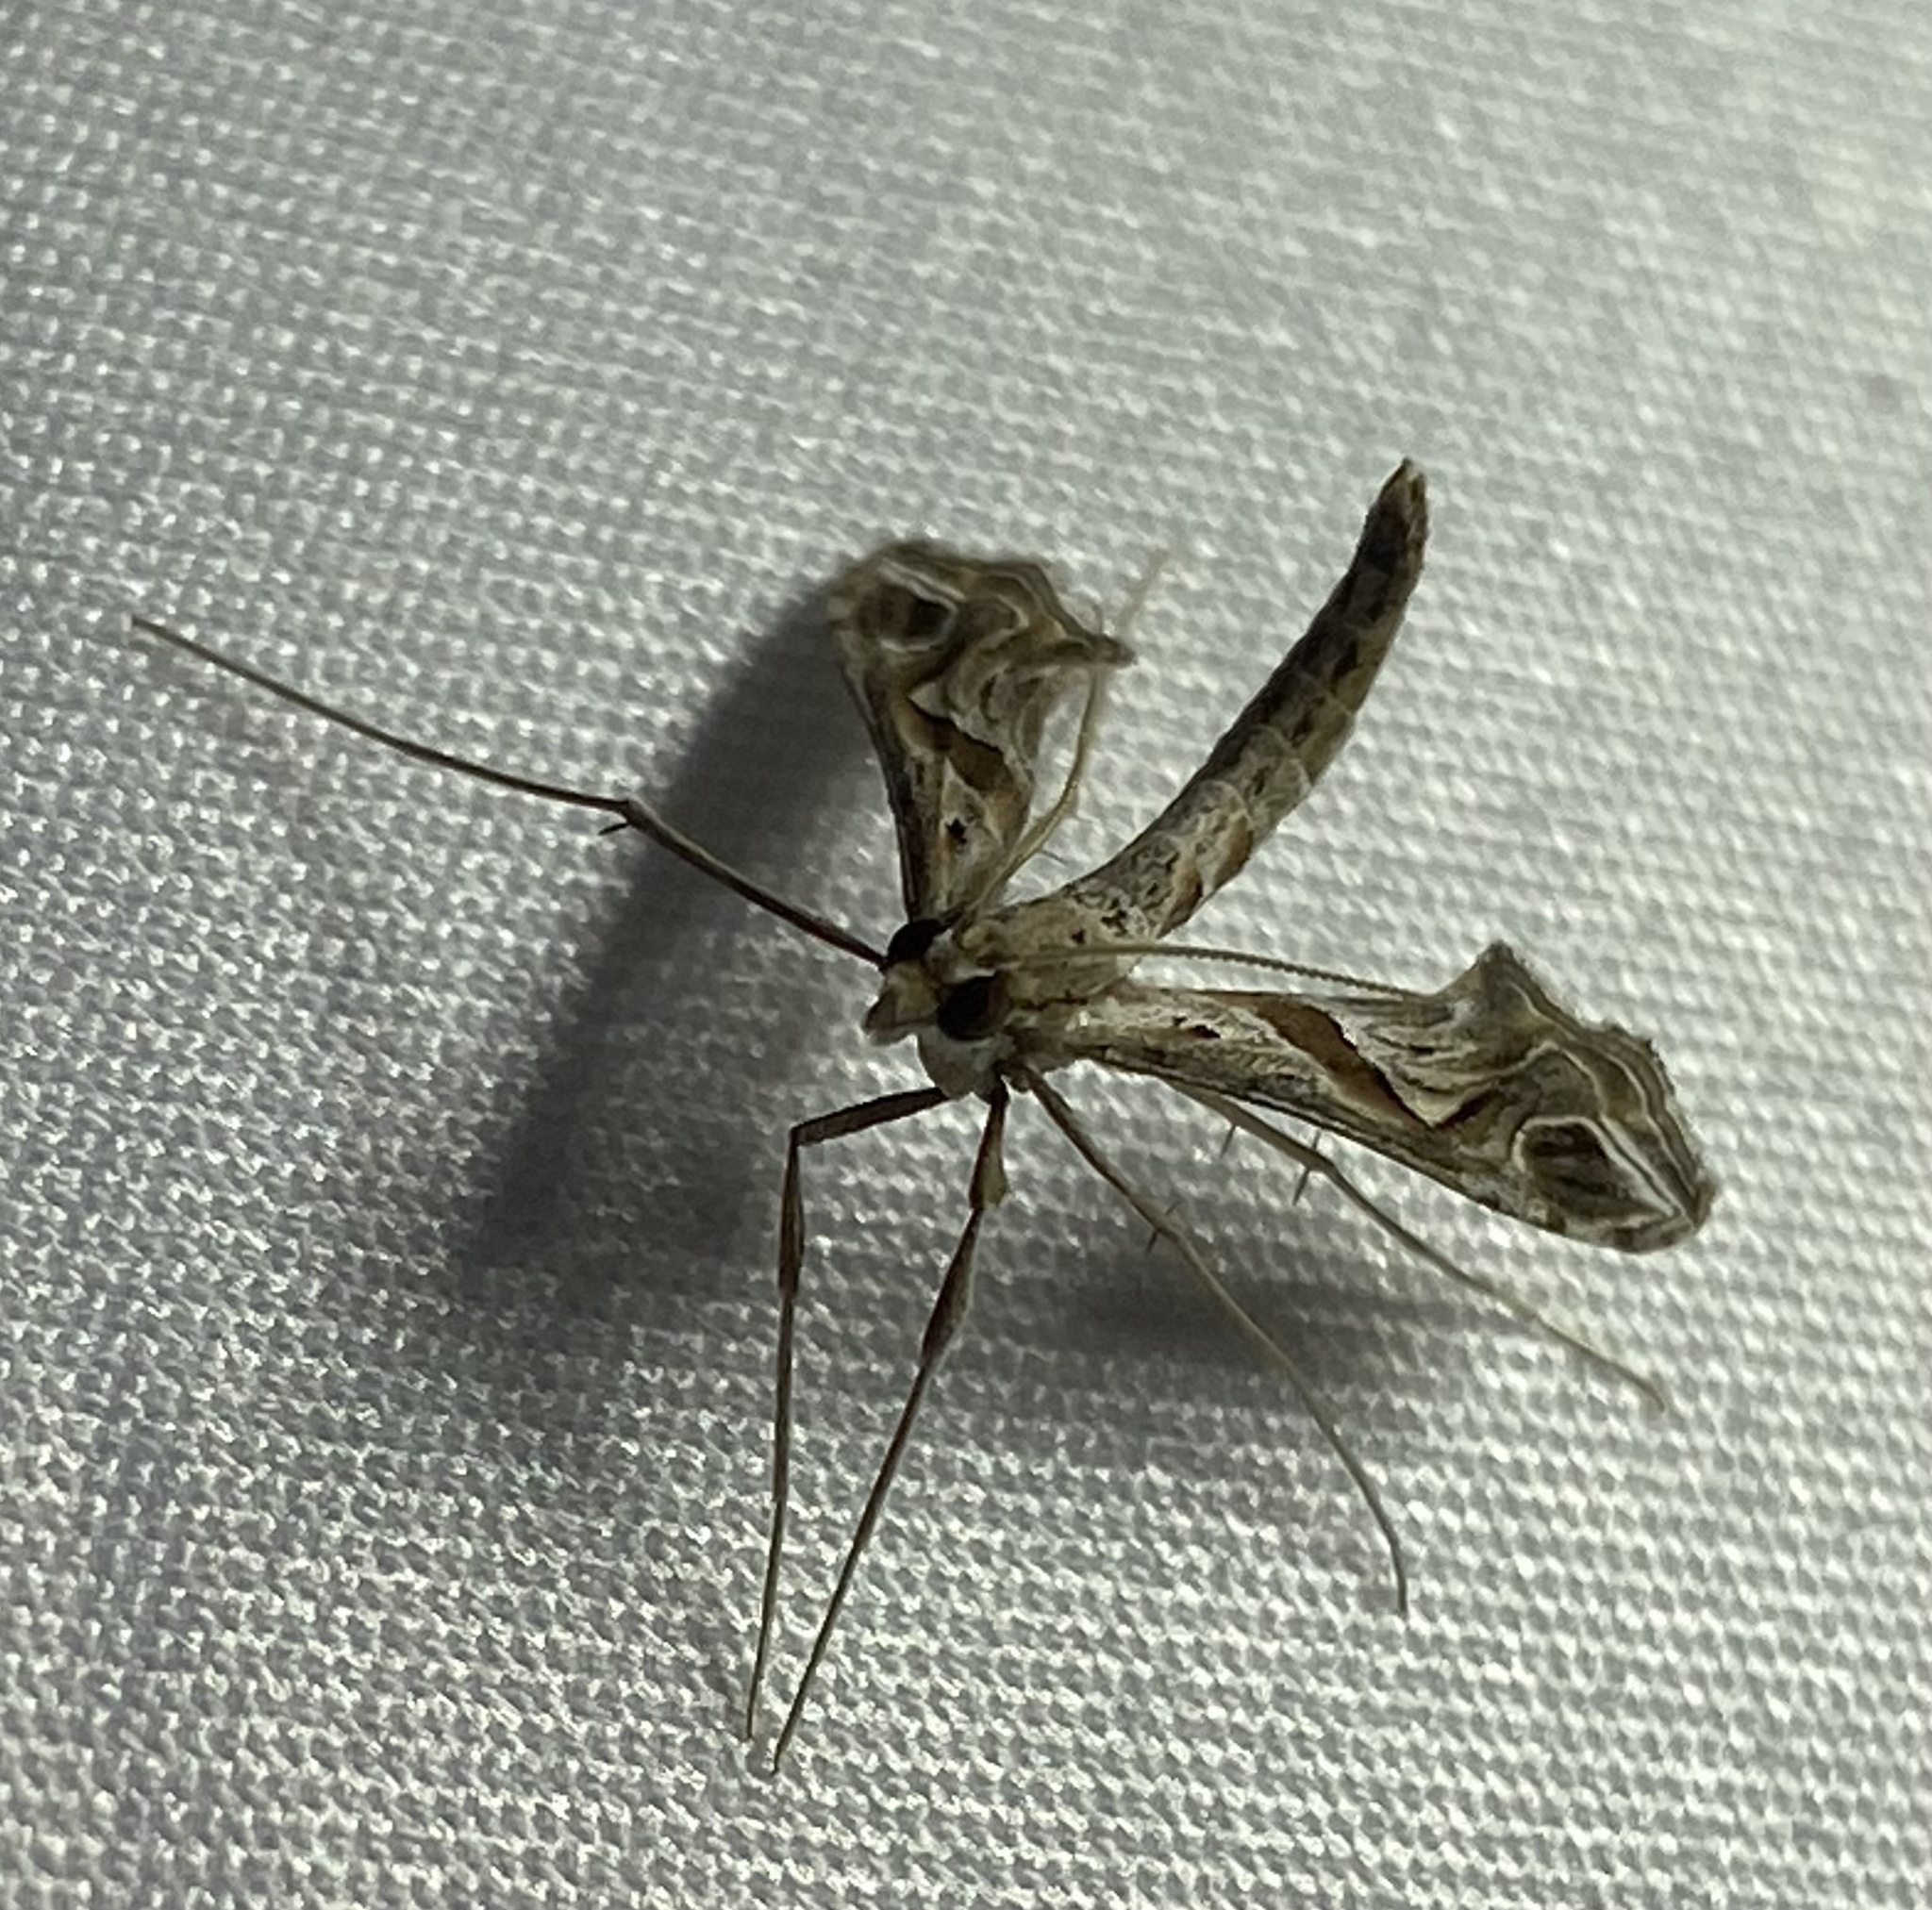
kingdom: Animalia
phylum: Arthropoda
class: Insecta
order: Lepidoptera
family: Crambidae
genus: Lineodes
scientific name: Lineodes integra
